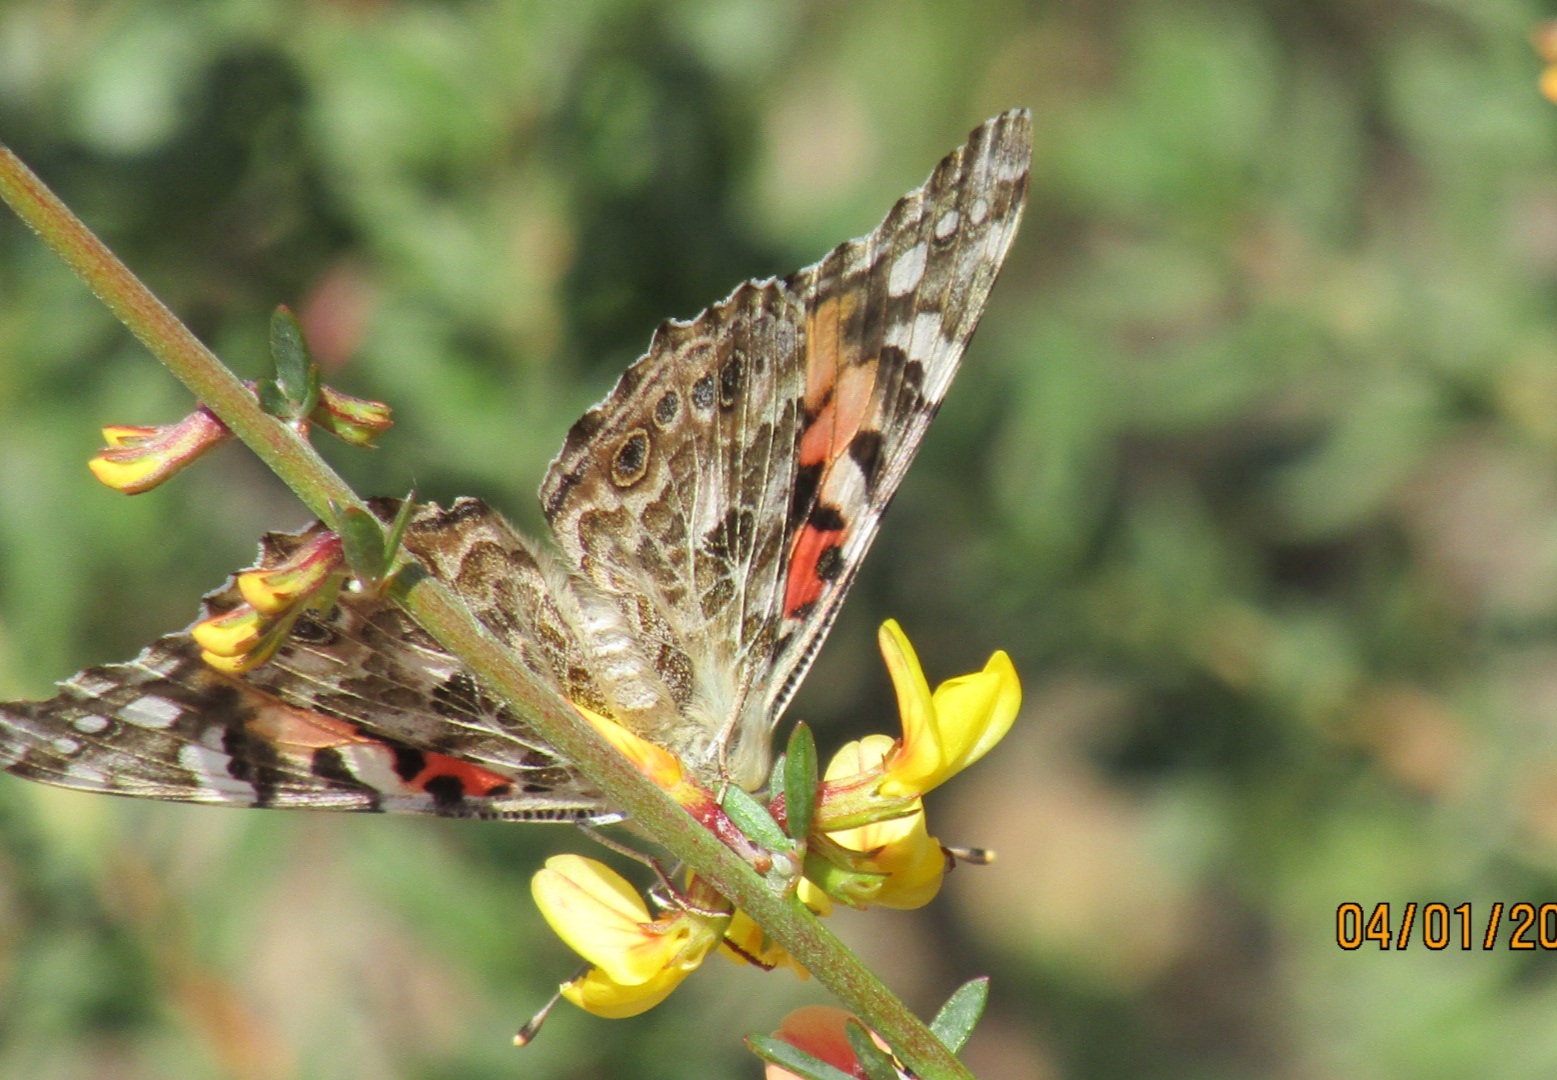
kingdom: Animalia
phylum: Arthropoda
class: Insecta
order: Lepidoptera
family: Nymphalidae
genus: Vanessa
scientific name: Vanessa cardui
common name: Painted lady
